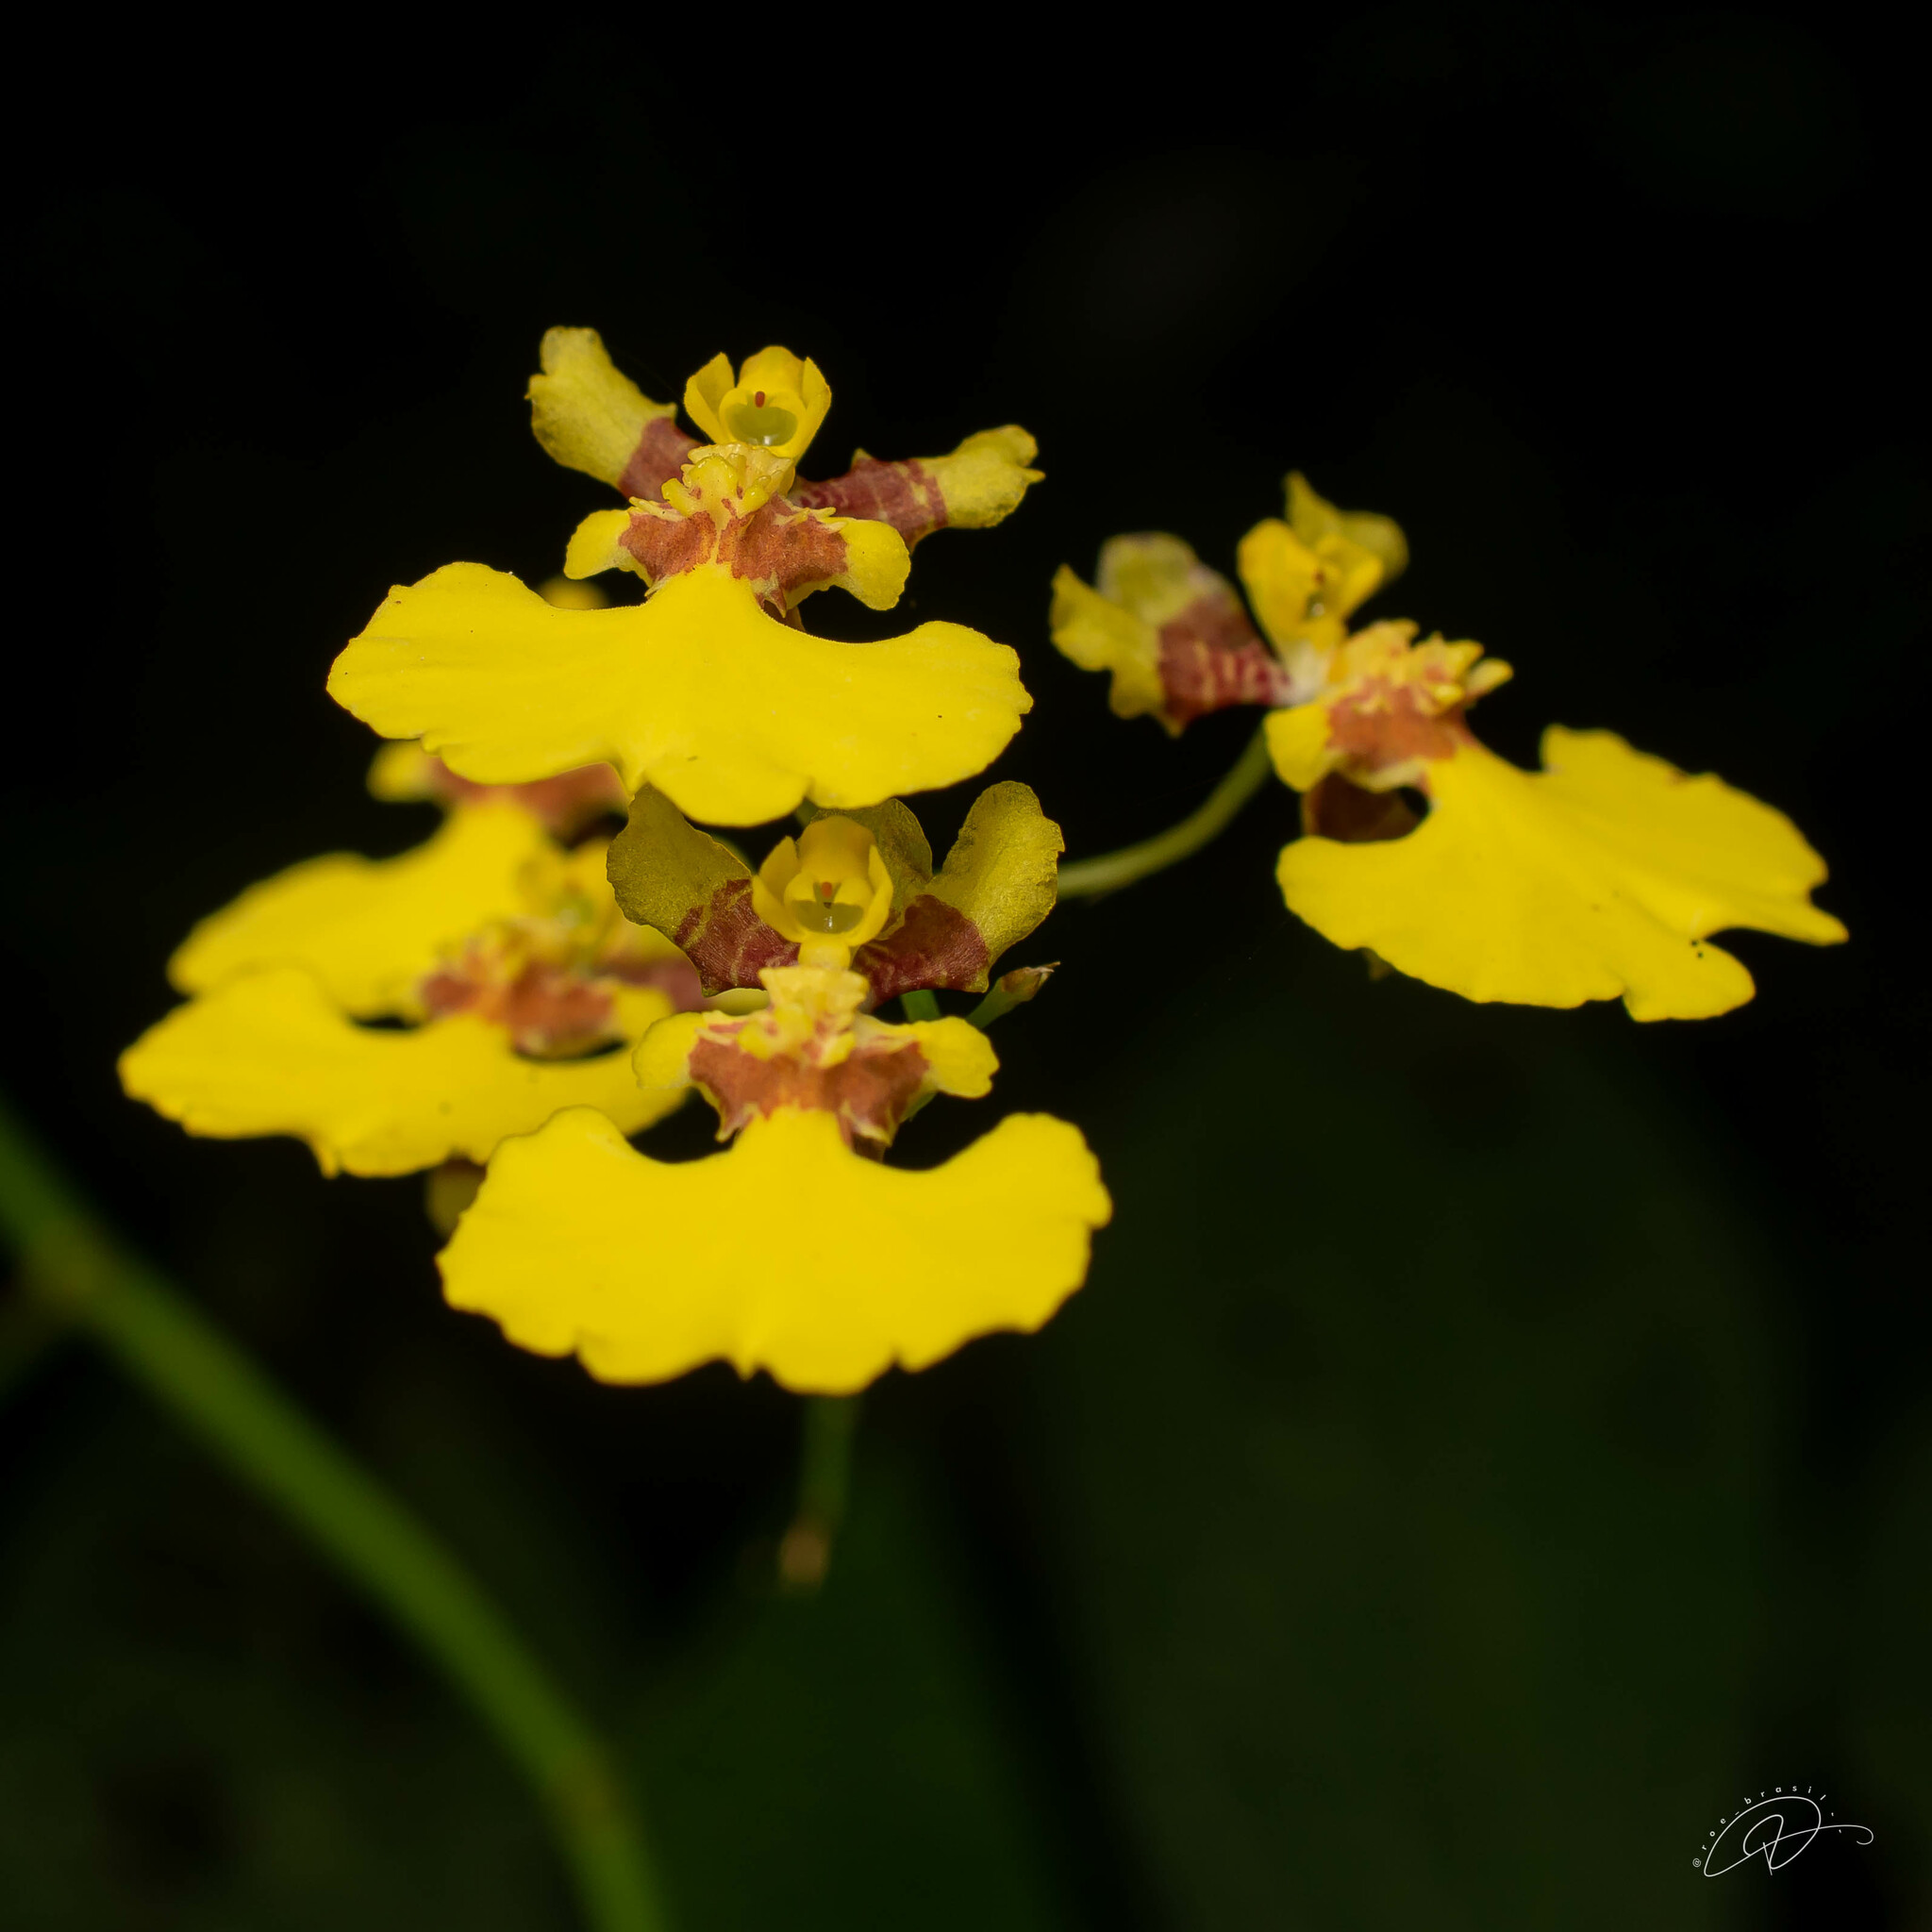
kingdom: Plantae
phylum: Tracheophyta
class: Liliopsida
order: Asparagales
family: Orchidaceae
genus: Gomesa
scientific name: Gomesa flexuosa
